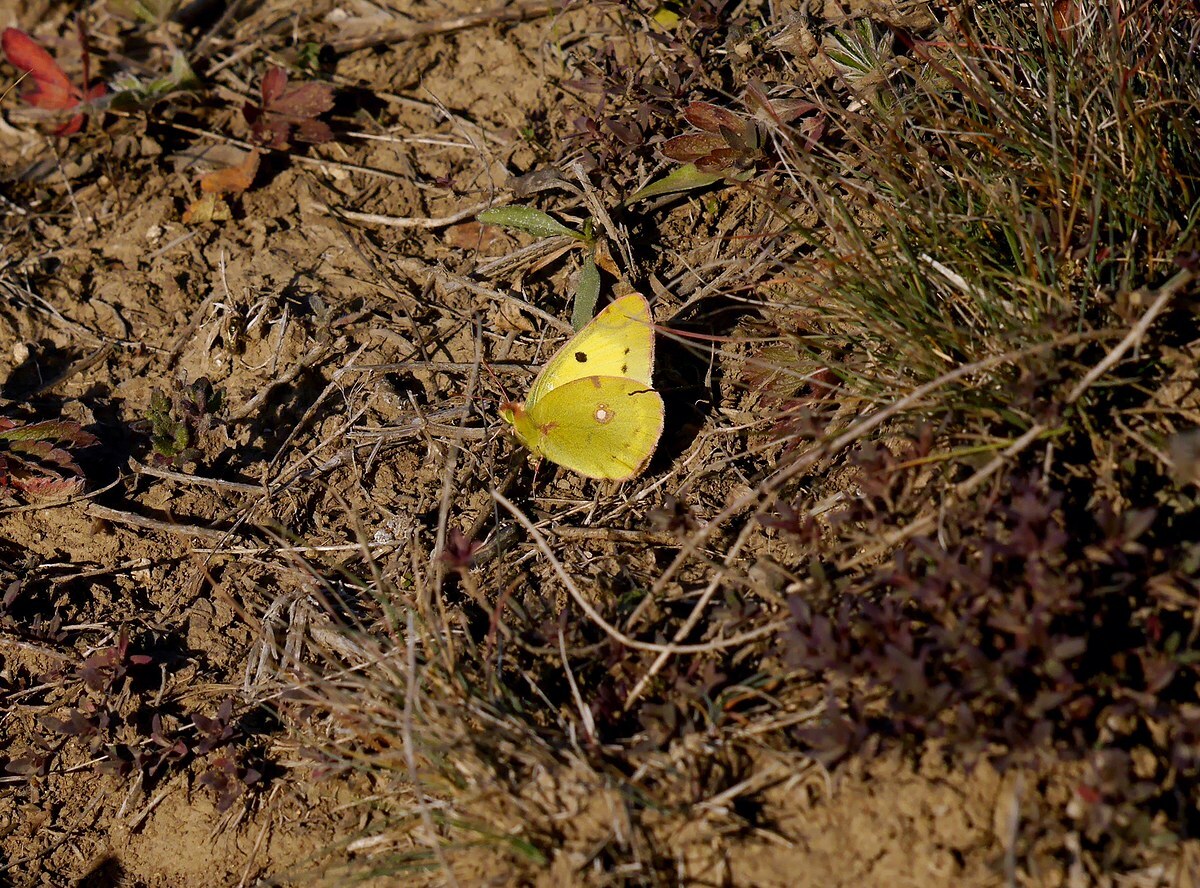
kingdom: Animalia
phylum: Arthropoda
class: Insecta
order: Lepidoptera
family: Pieridae
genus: Colias
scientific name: Colias erate
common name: Eastern pale clouded yellow
